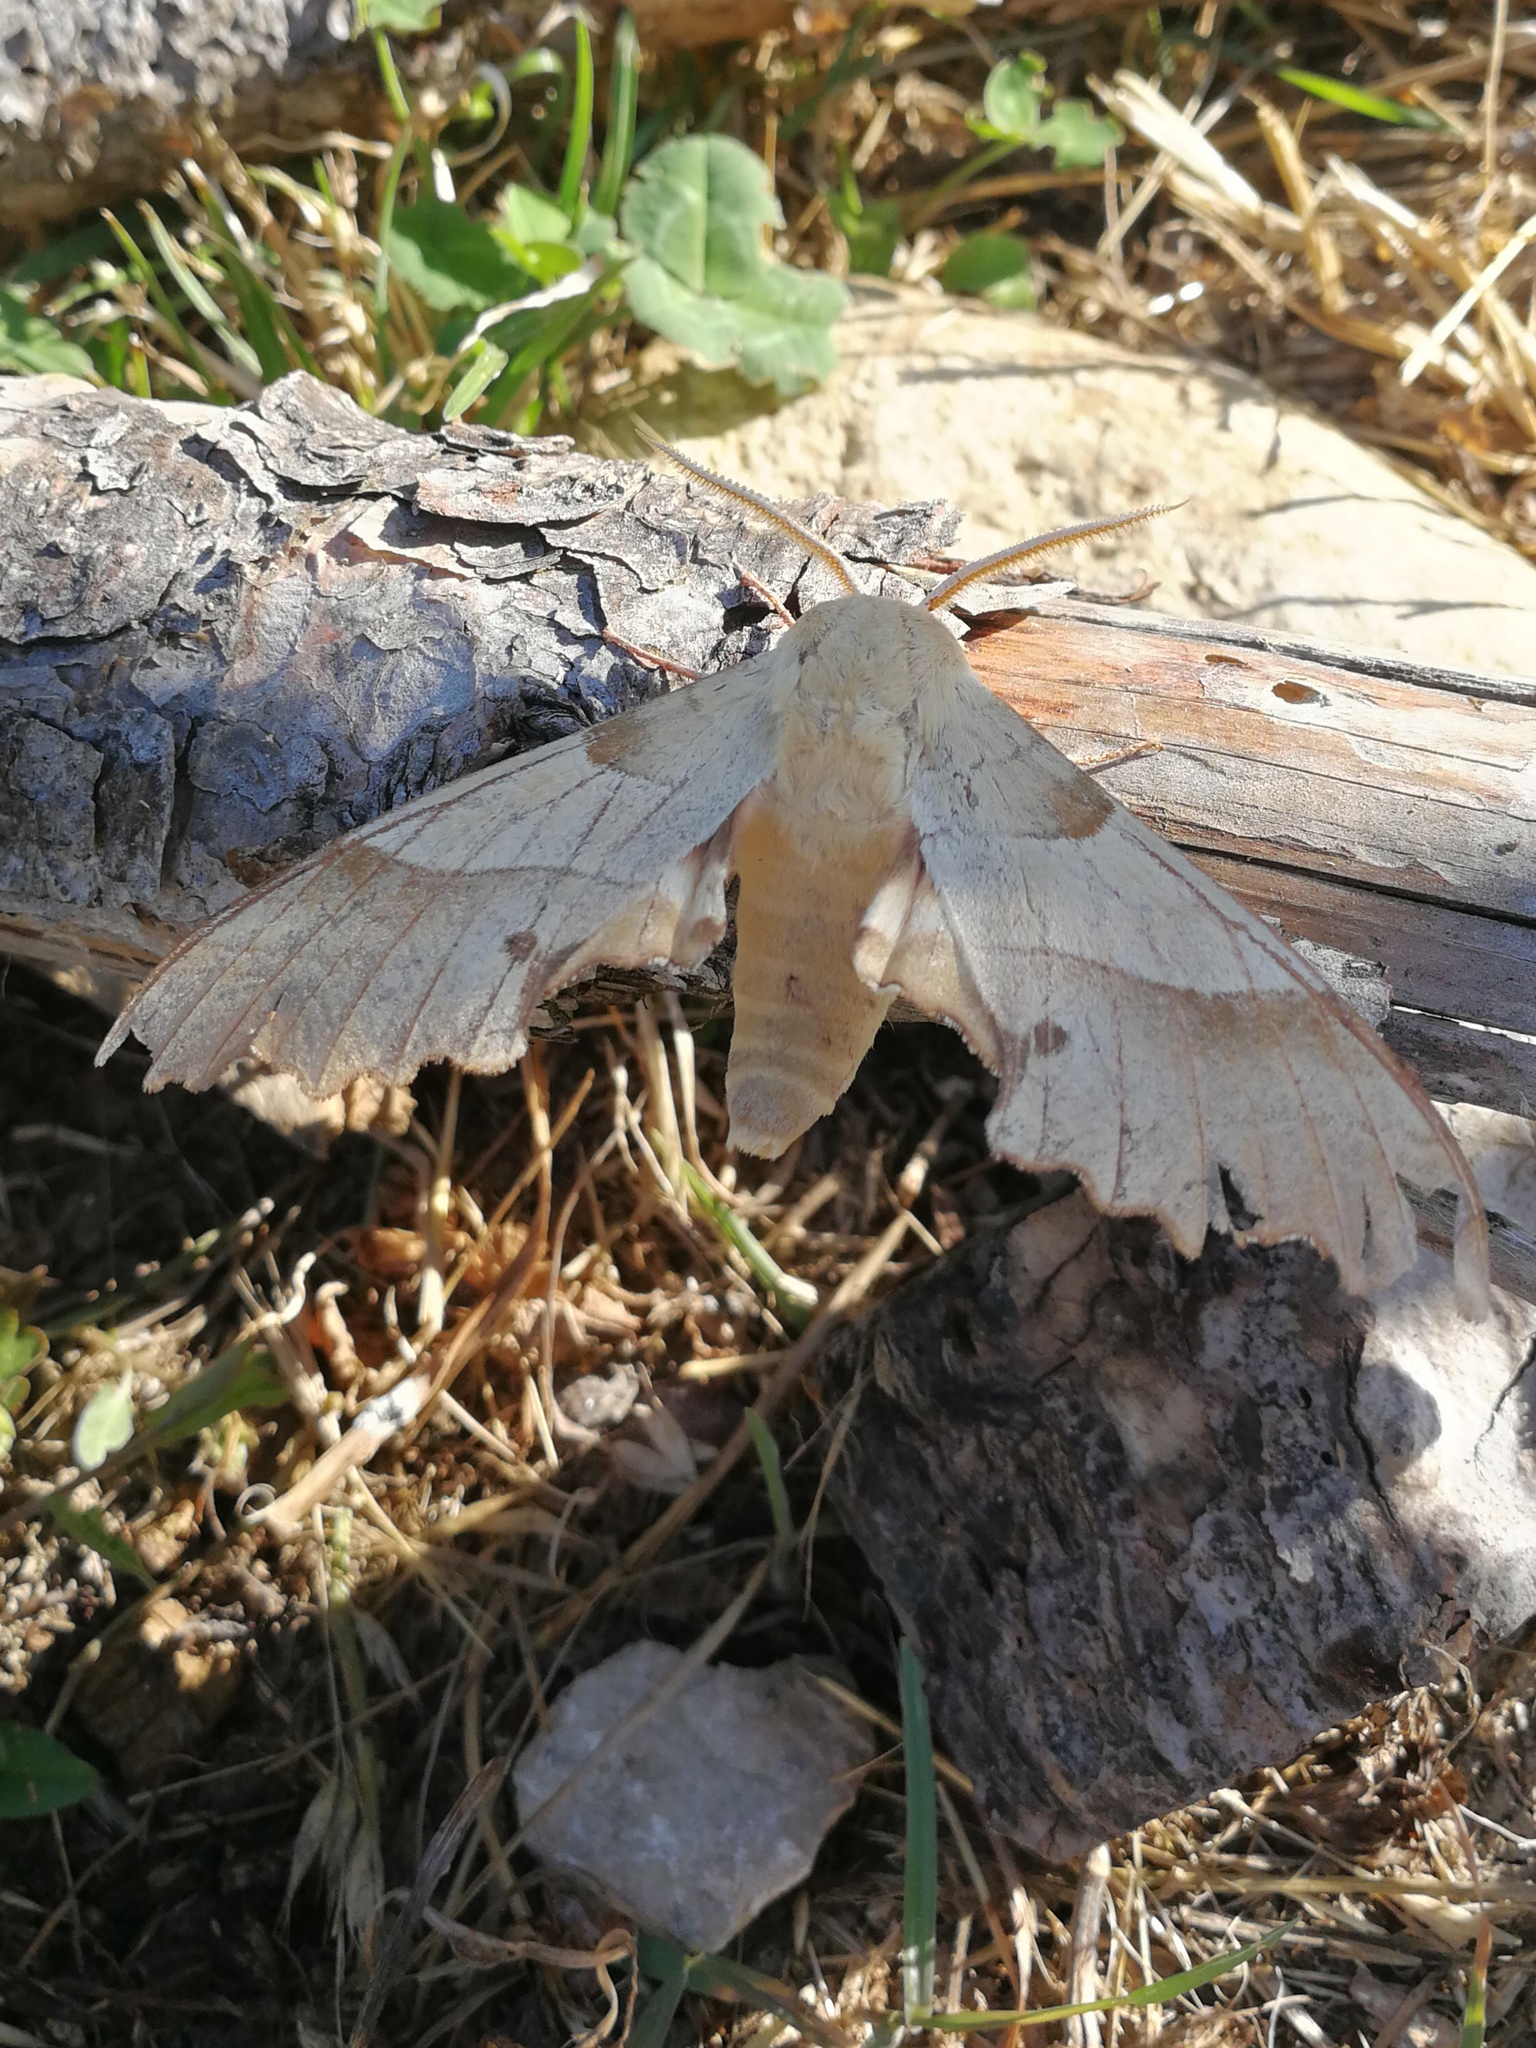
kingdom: Animalia
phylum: Arthropoda
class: Insecta
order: Lepidoptera
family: Sphingidae
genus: Marumba
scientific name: Marumba quercus
